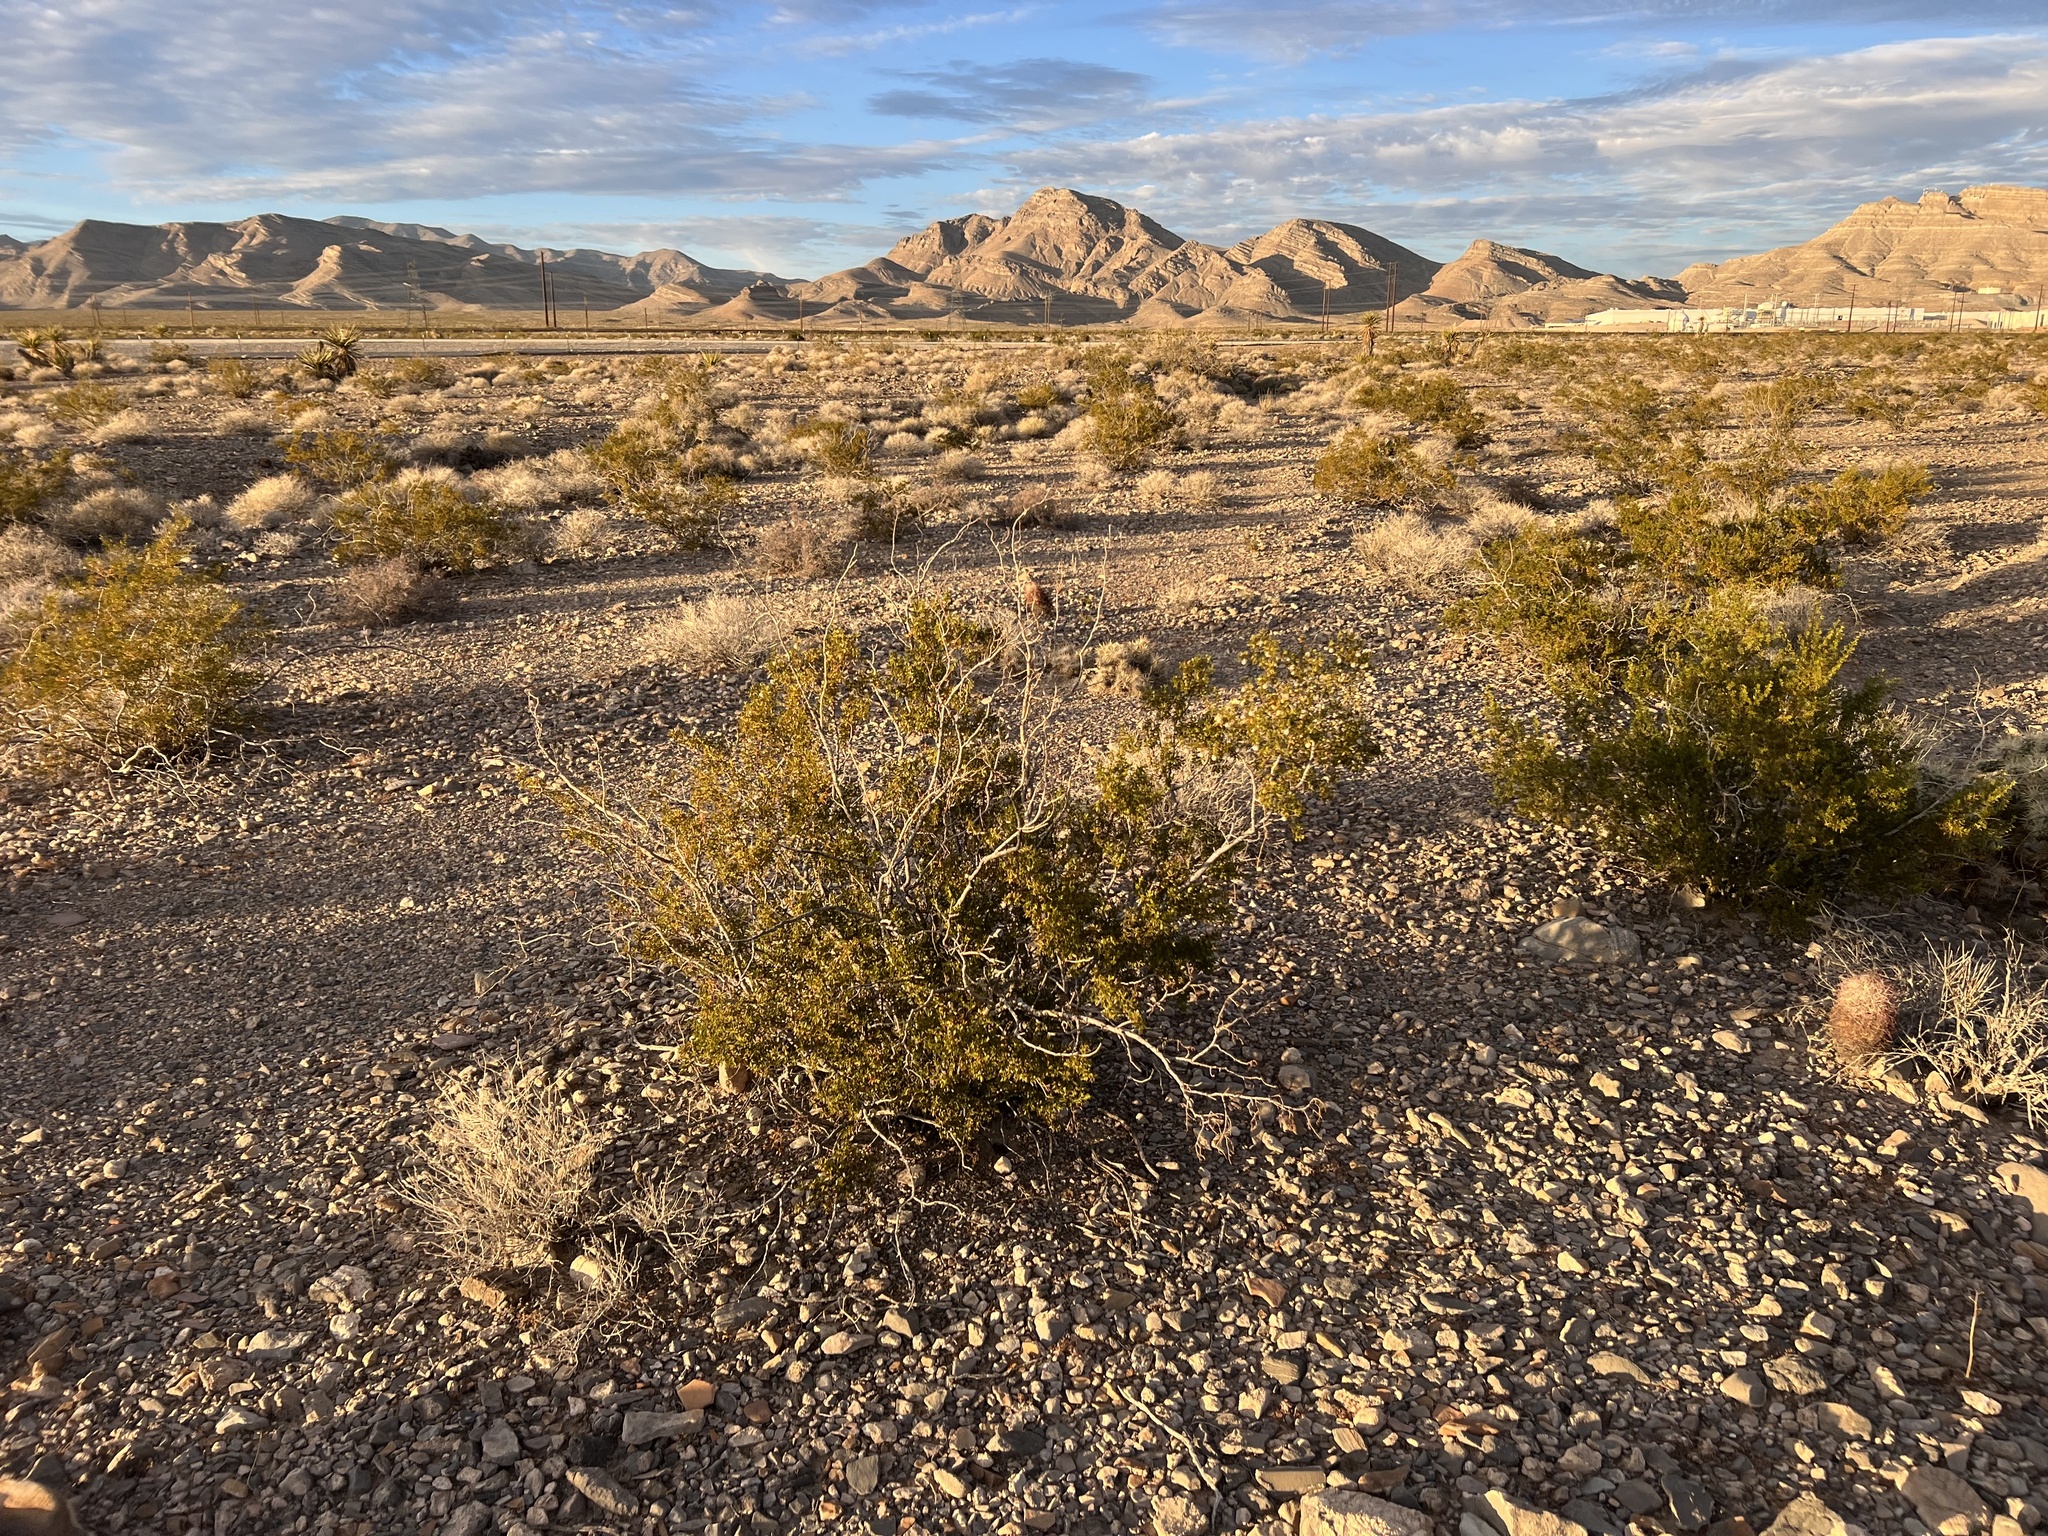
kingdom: Plantae
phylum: Tracheophyta
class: Magnoliopsida
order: Zygophyllales
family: Zygophyllaceae
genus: Larrea
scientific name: Larrea tridentata
